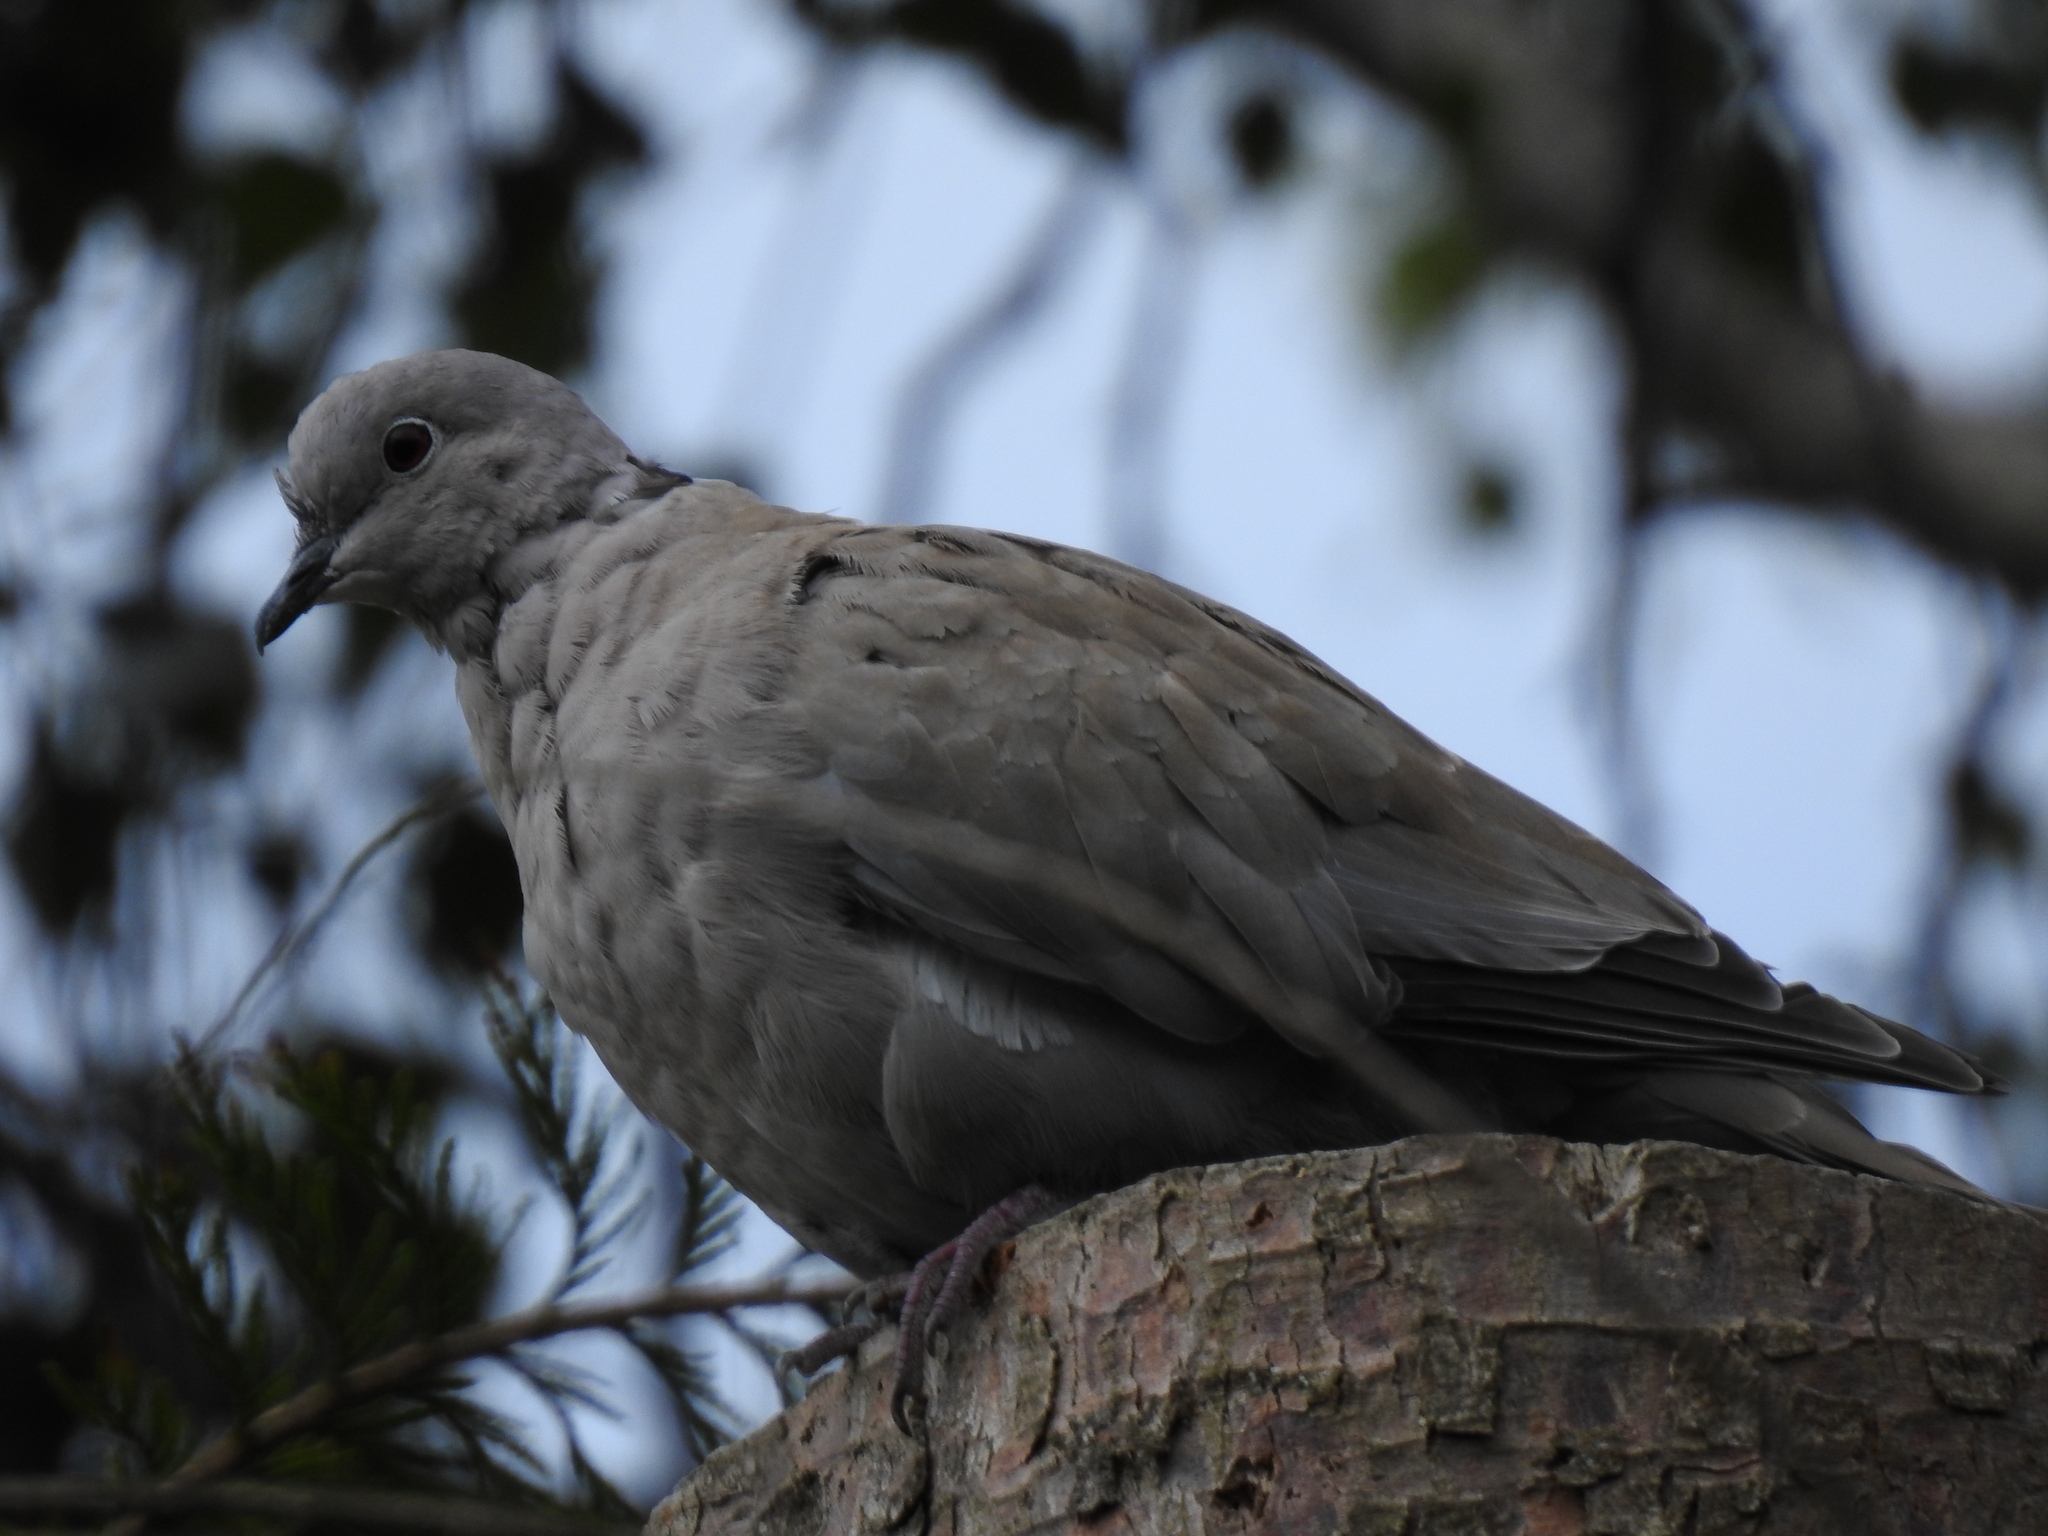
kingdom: Animalia
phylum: Chordata
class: Aves
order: Columbiformes
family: Columbidae
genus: Streptopelia
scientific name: Streptopelia decaocto
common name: Eurasian collared dove
